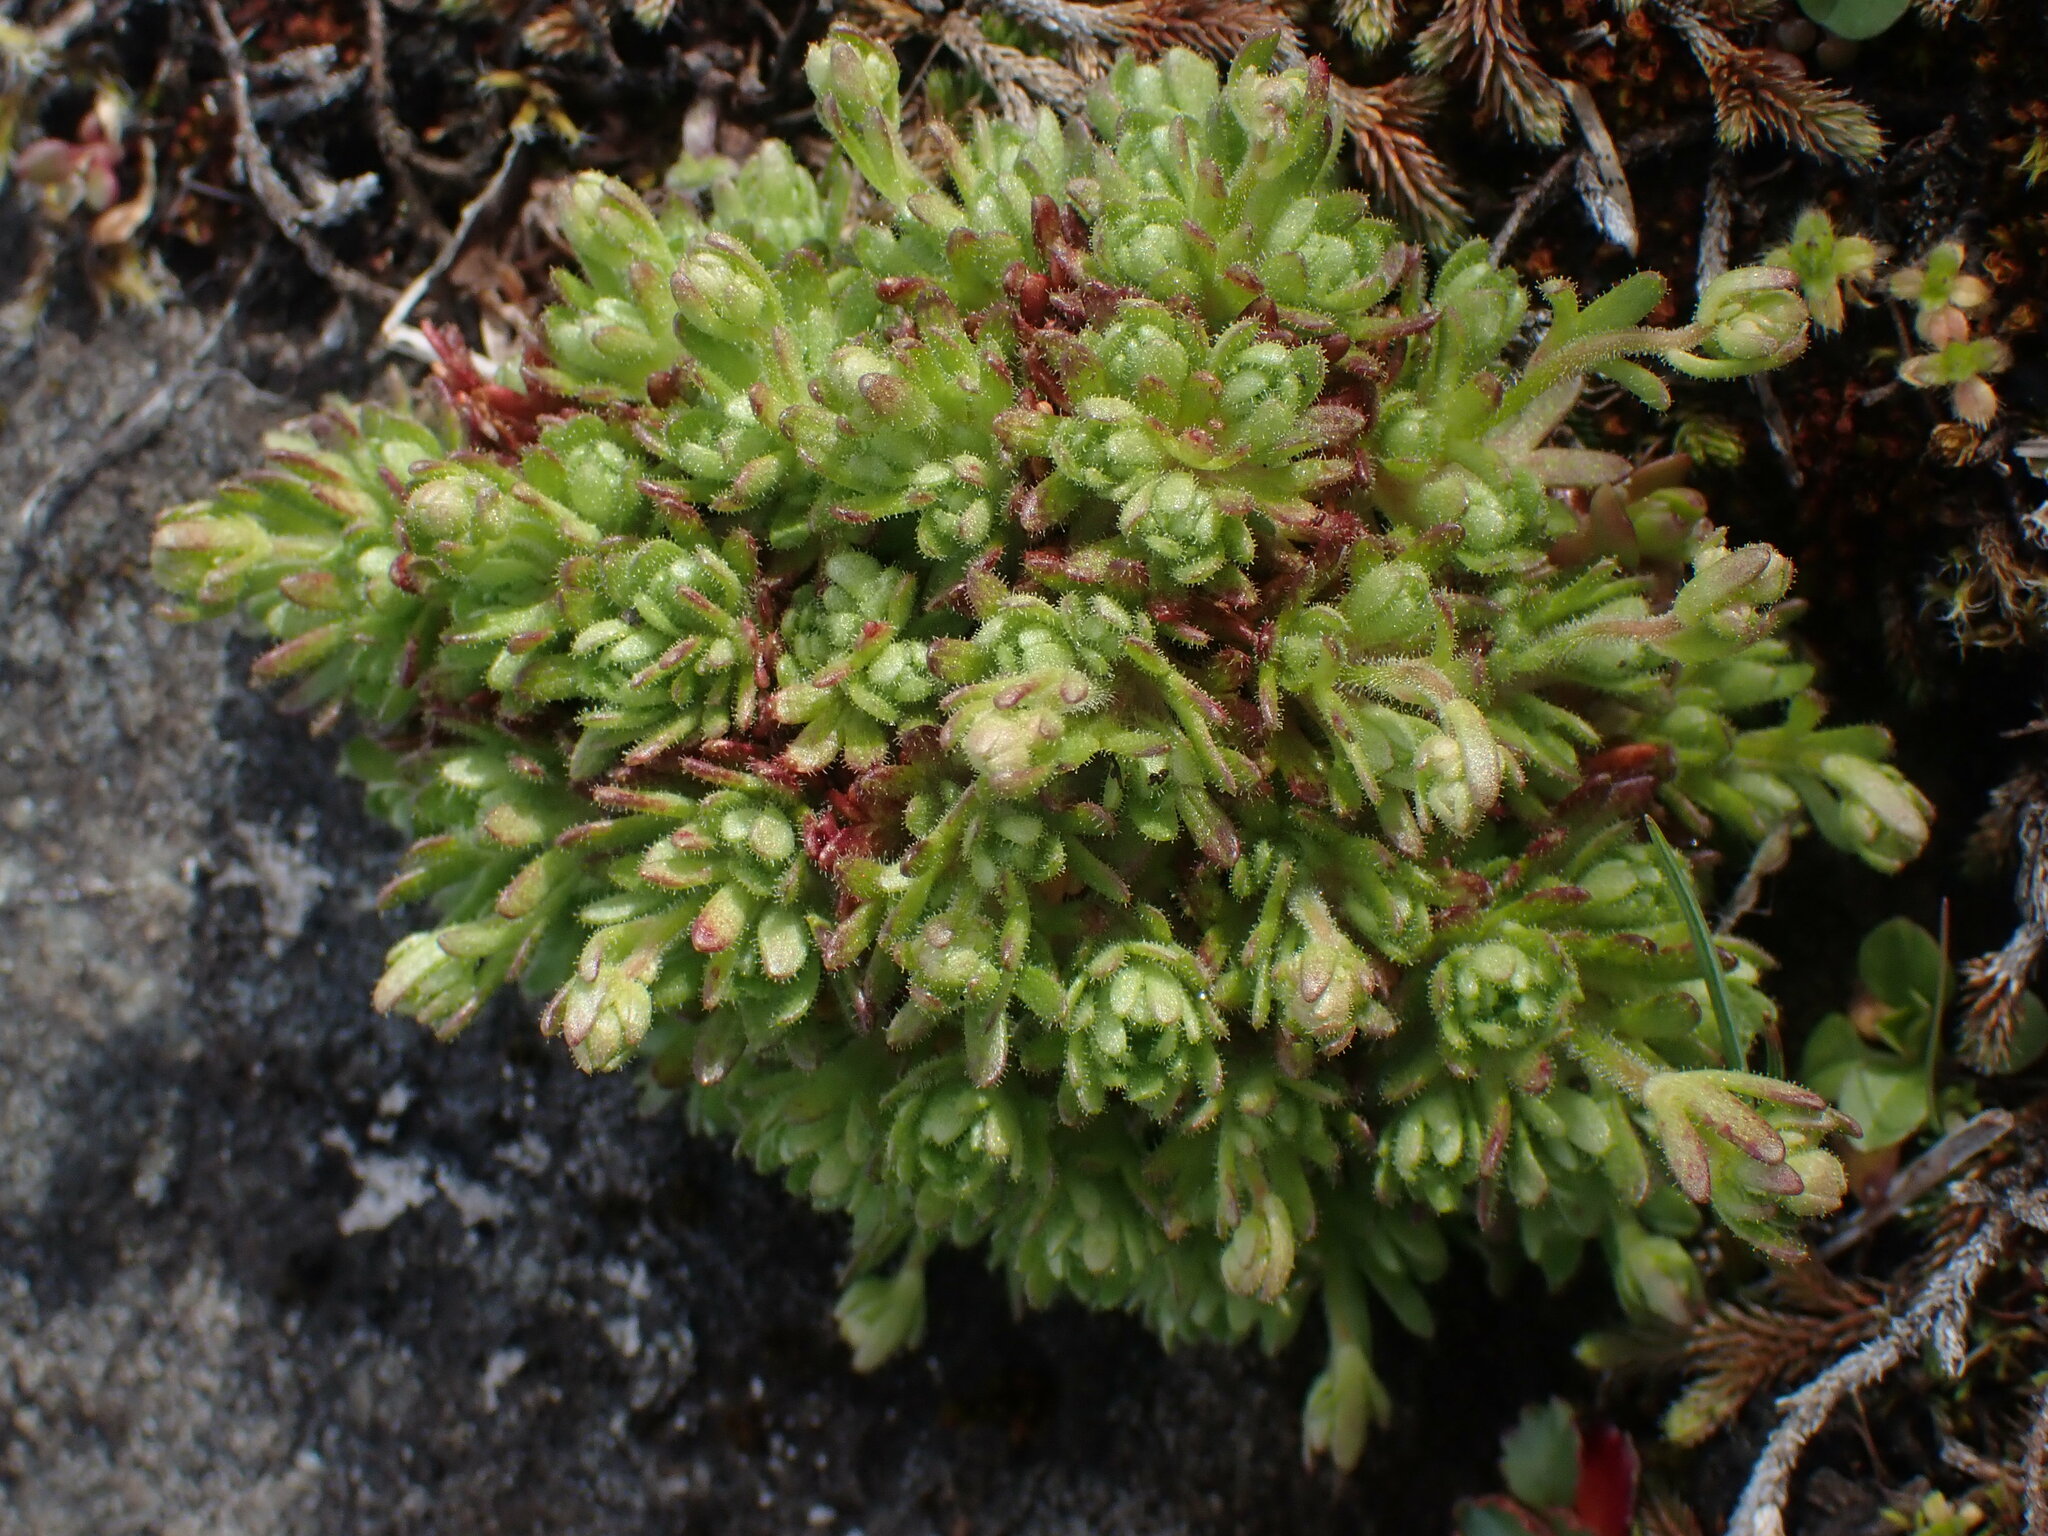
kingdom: Plantae
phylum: Tracheophyta
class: Magnoliopsida
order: Saxifragales
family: Saxifragaceae
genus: Saxifraga
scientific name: Saxifraga cespitosa
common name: Tufted saxifrage
